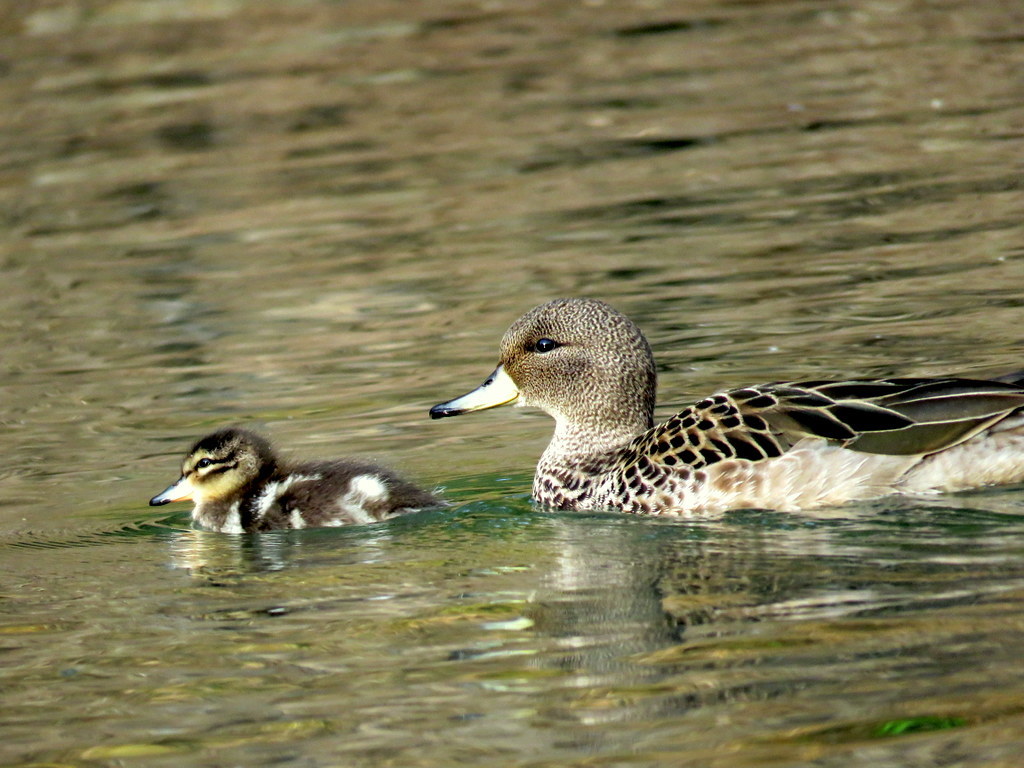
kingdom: Animalia
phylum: Chordata
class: Aves
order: Anseriformes
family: Anatidae
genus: Anas
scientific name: Anas flavirostris
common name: Yellow-billed teal
